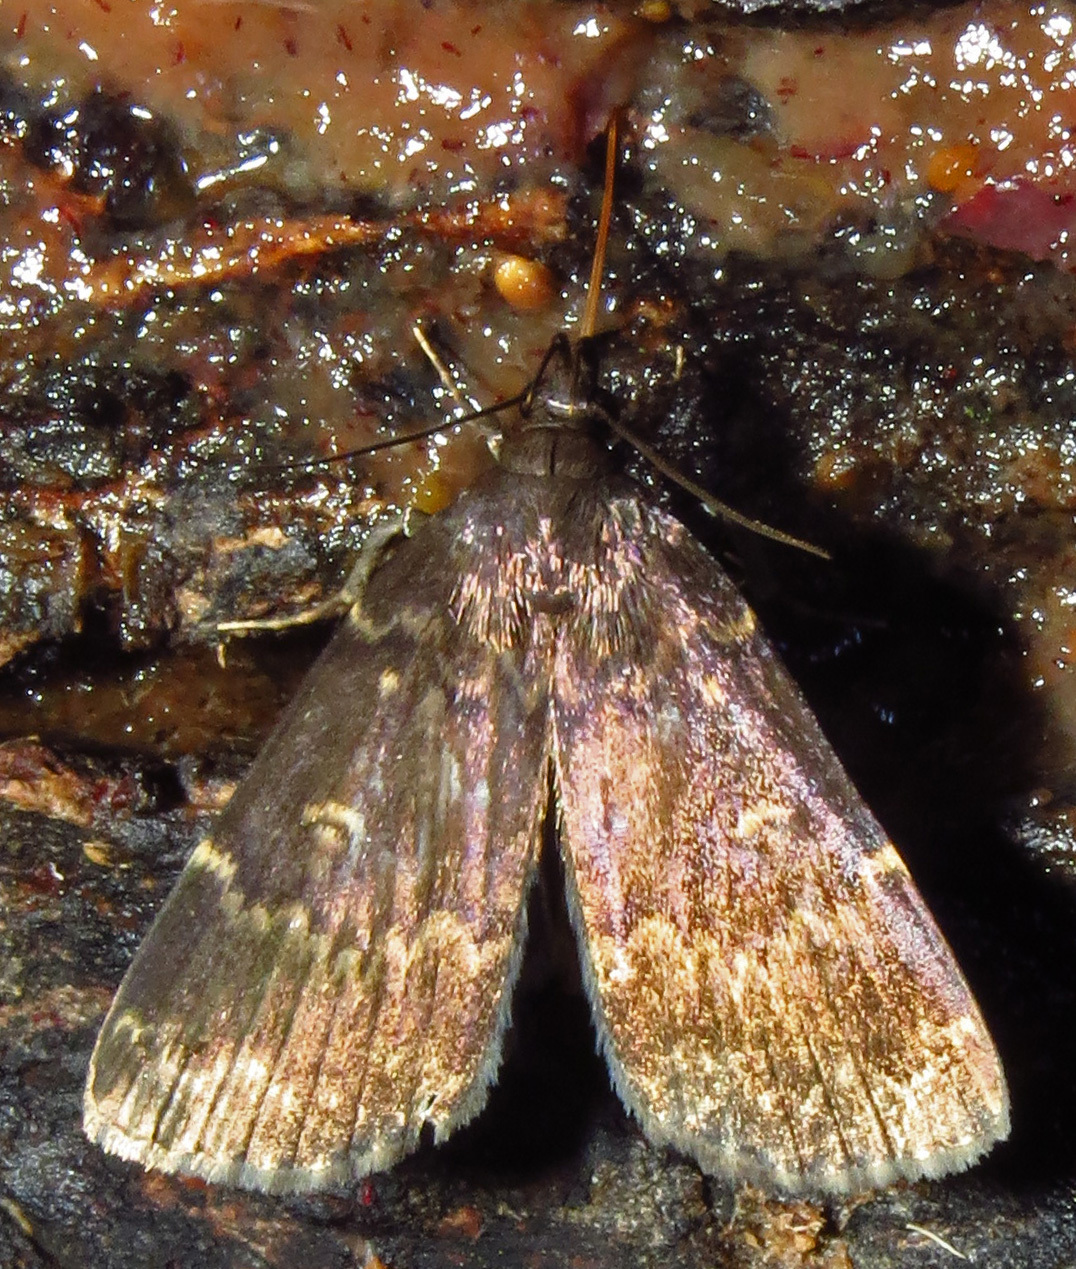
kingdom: Animalia
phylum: Arthropoda
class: Insecta
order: Lepidoptera
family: Erebidae
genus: Idia
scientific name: Idia lubricalis
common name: Twin-striped tabby
